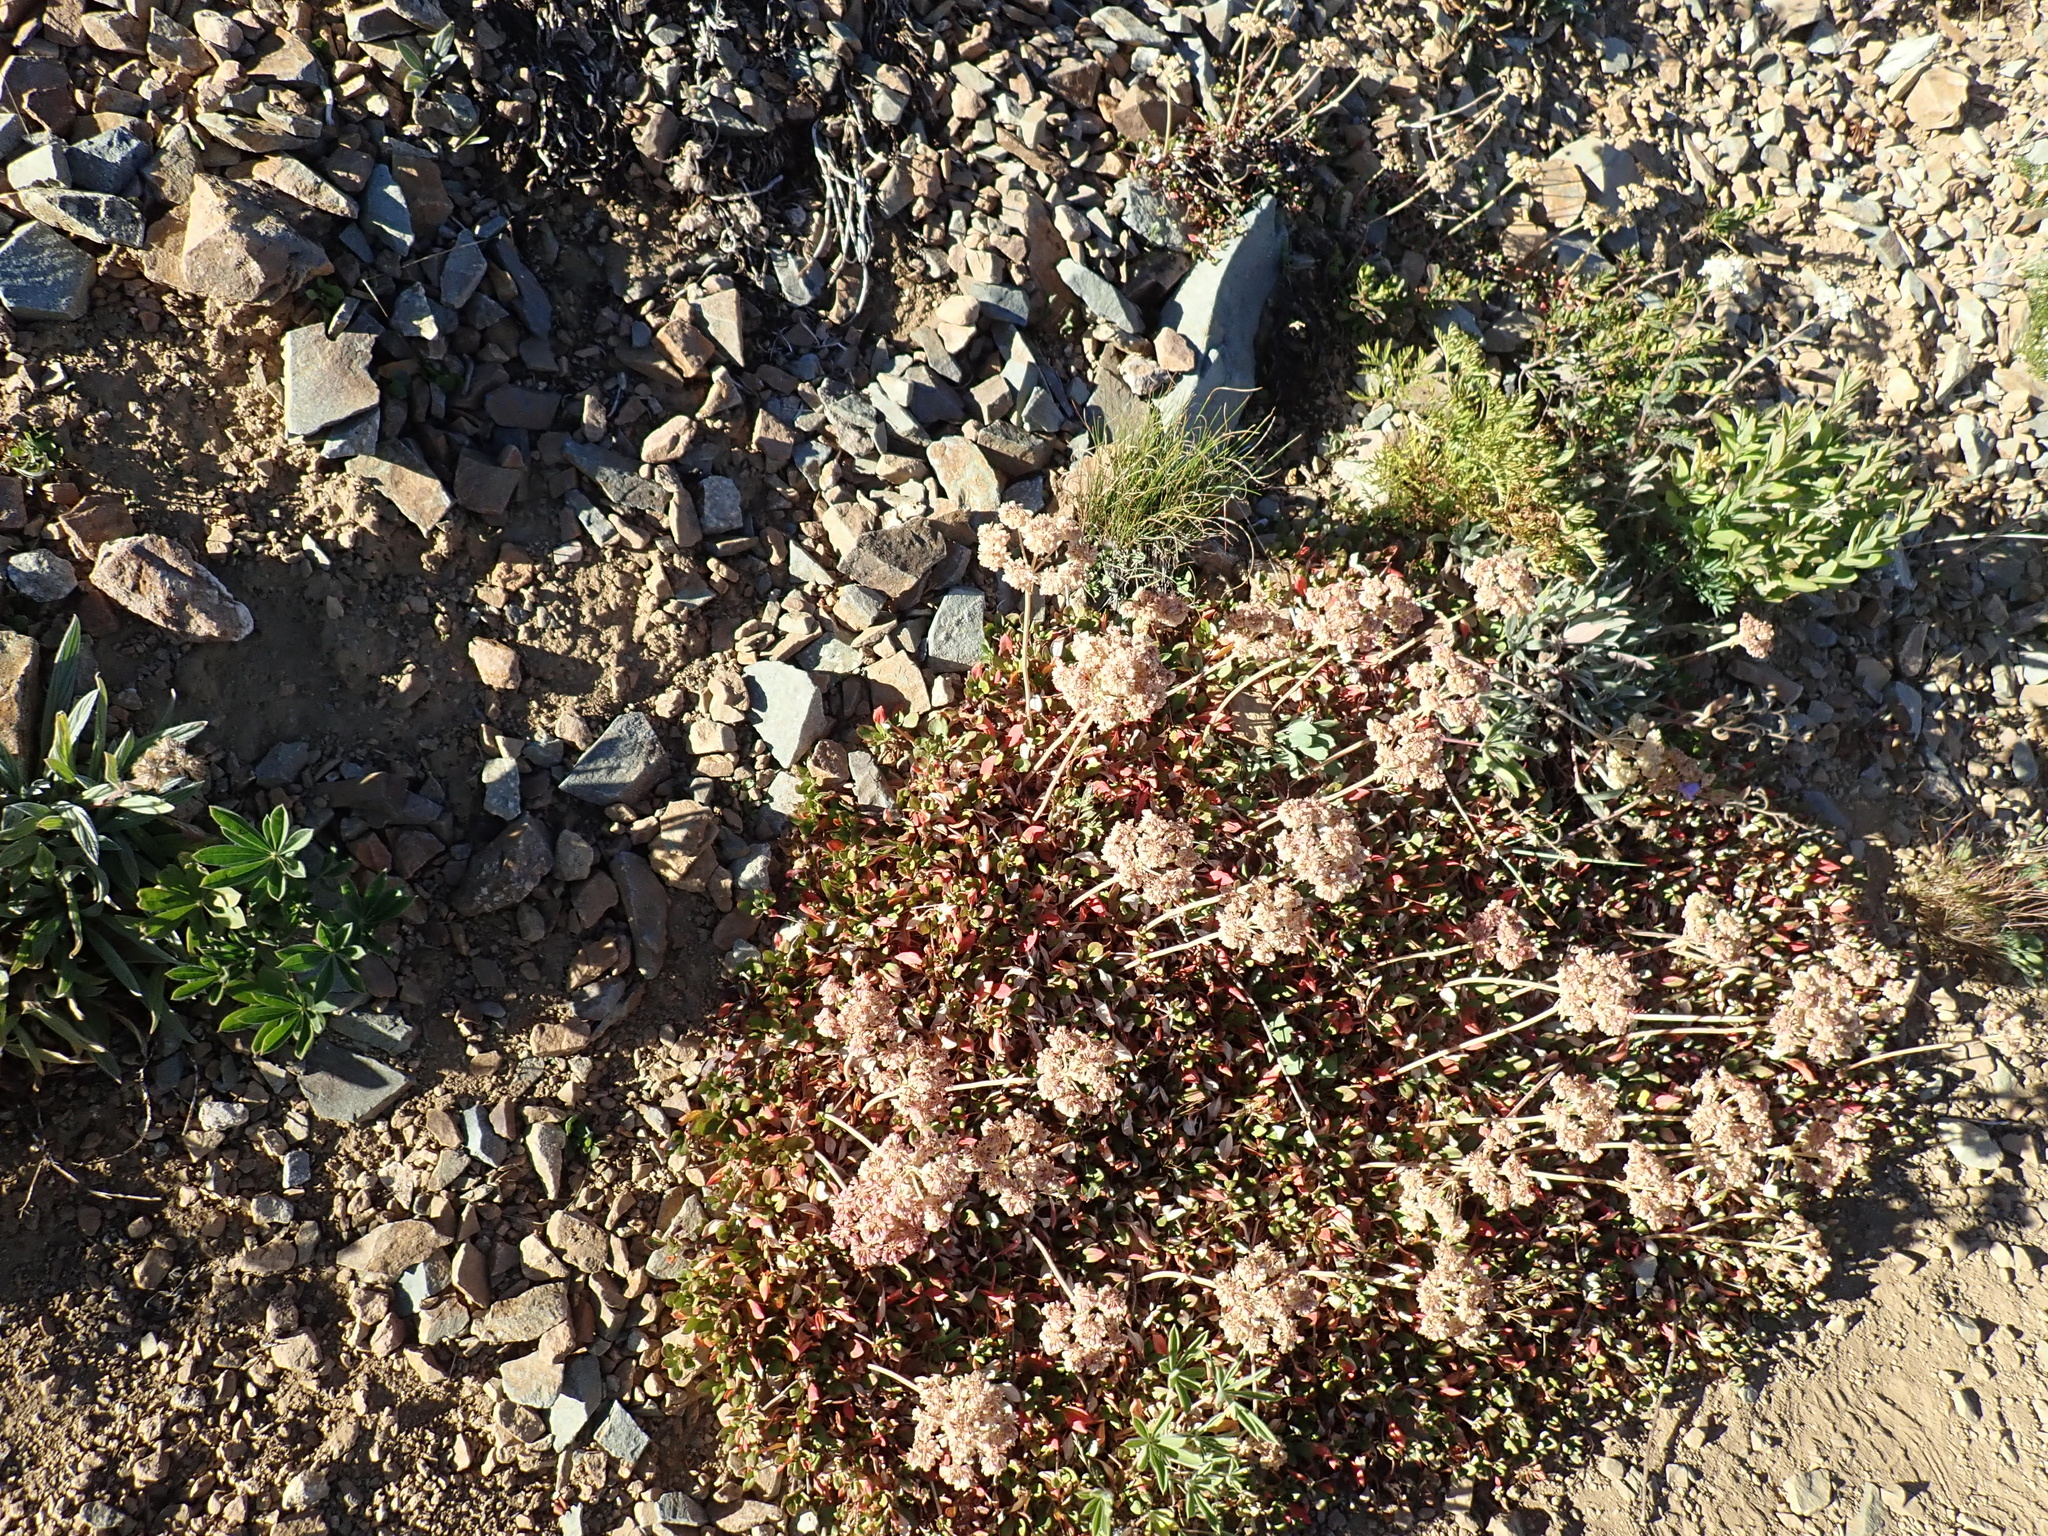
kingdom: Plantae
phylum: Tracheophyta
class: Magnoliopsida
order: Caryophyllales
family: Polygonaceae
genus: Eriogonum
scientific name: Eriogonum umbellatum
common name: Sulfur-buckwheat
